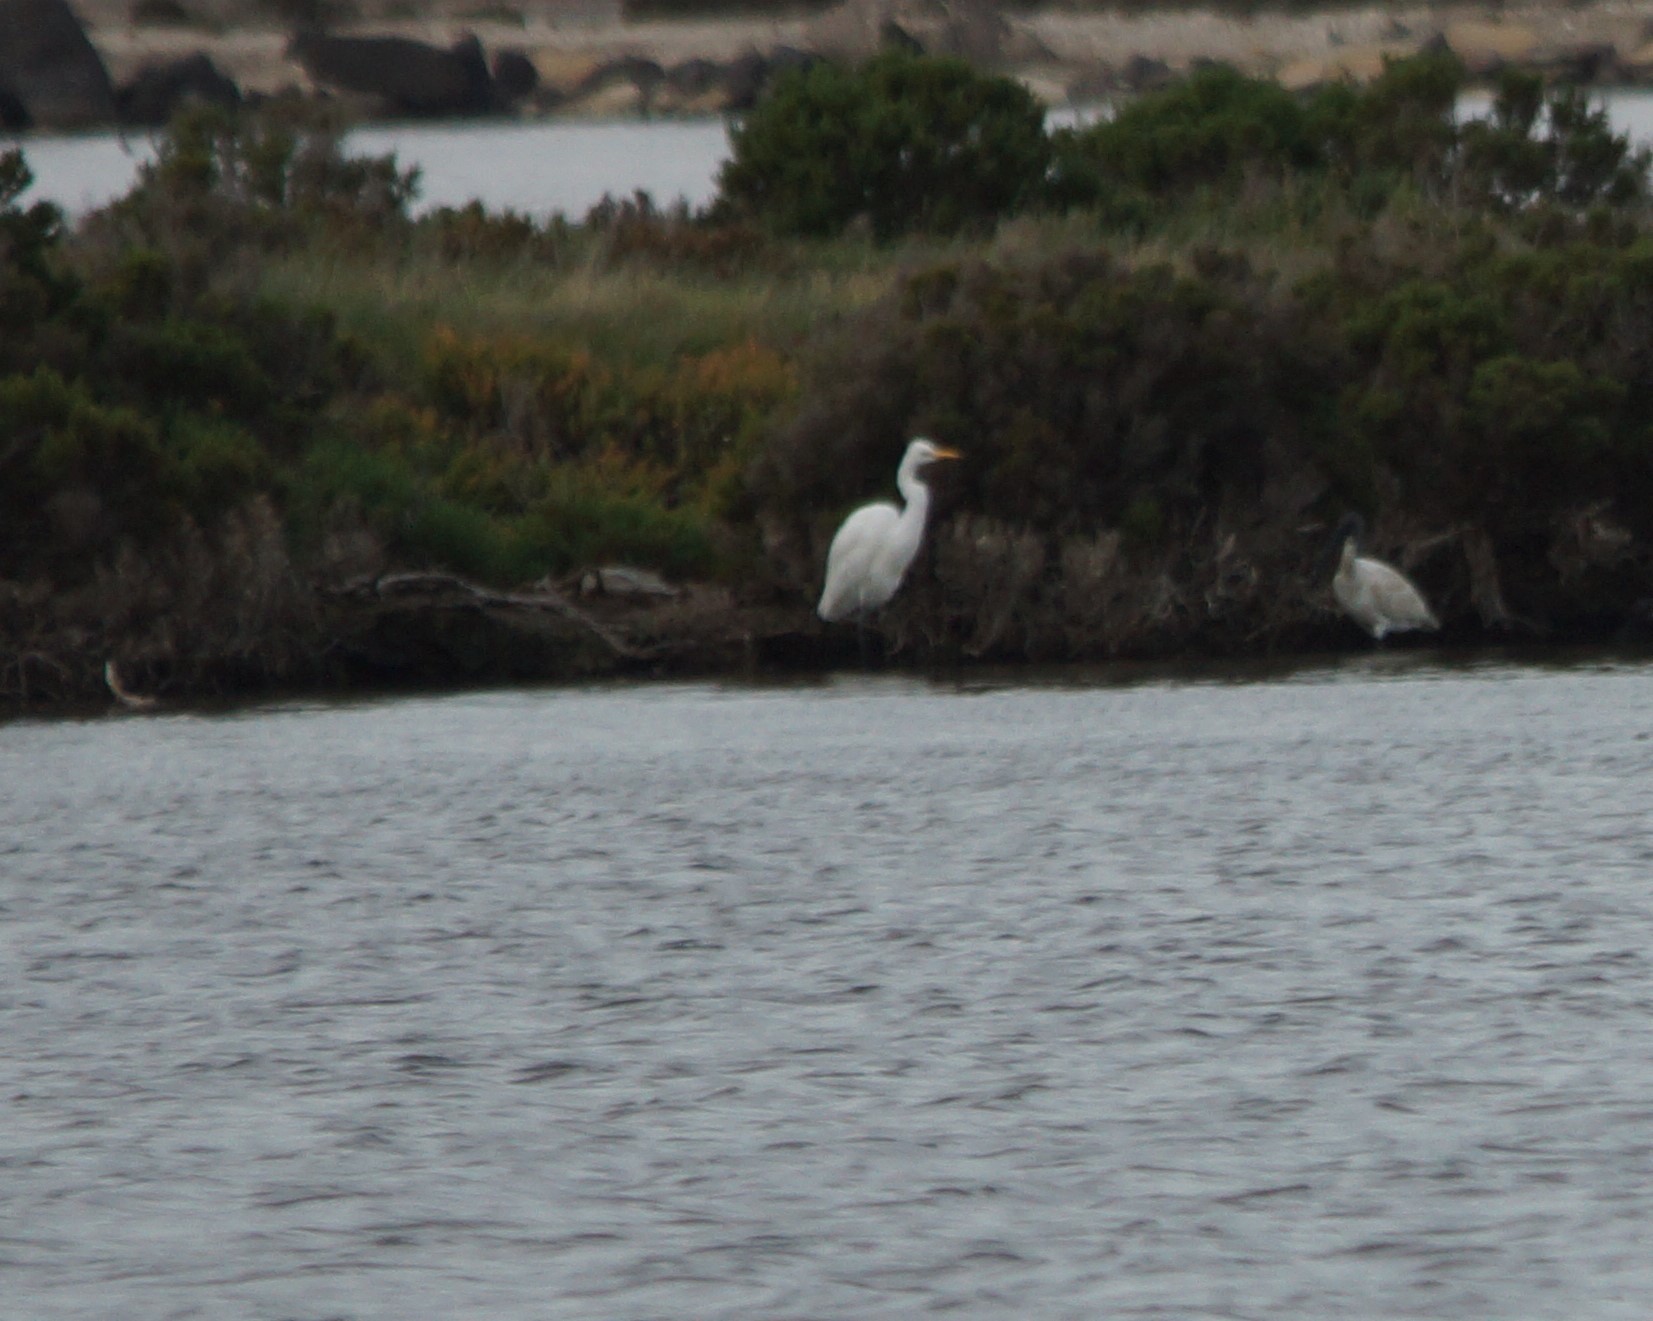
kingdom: Animalia
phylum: Chordata
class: Aves
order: Pelecaniformes
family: Ardeidae
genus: Ardea
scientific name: Ardea alba
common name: Great egret
